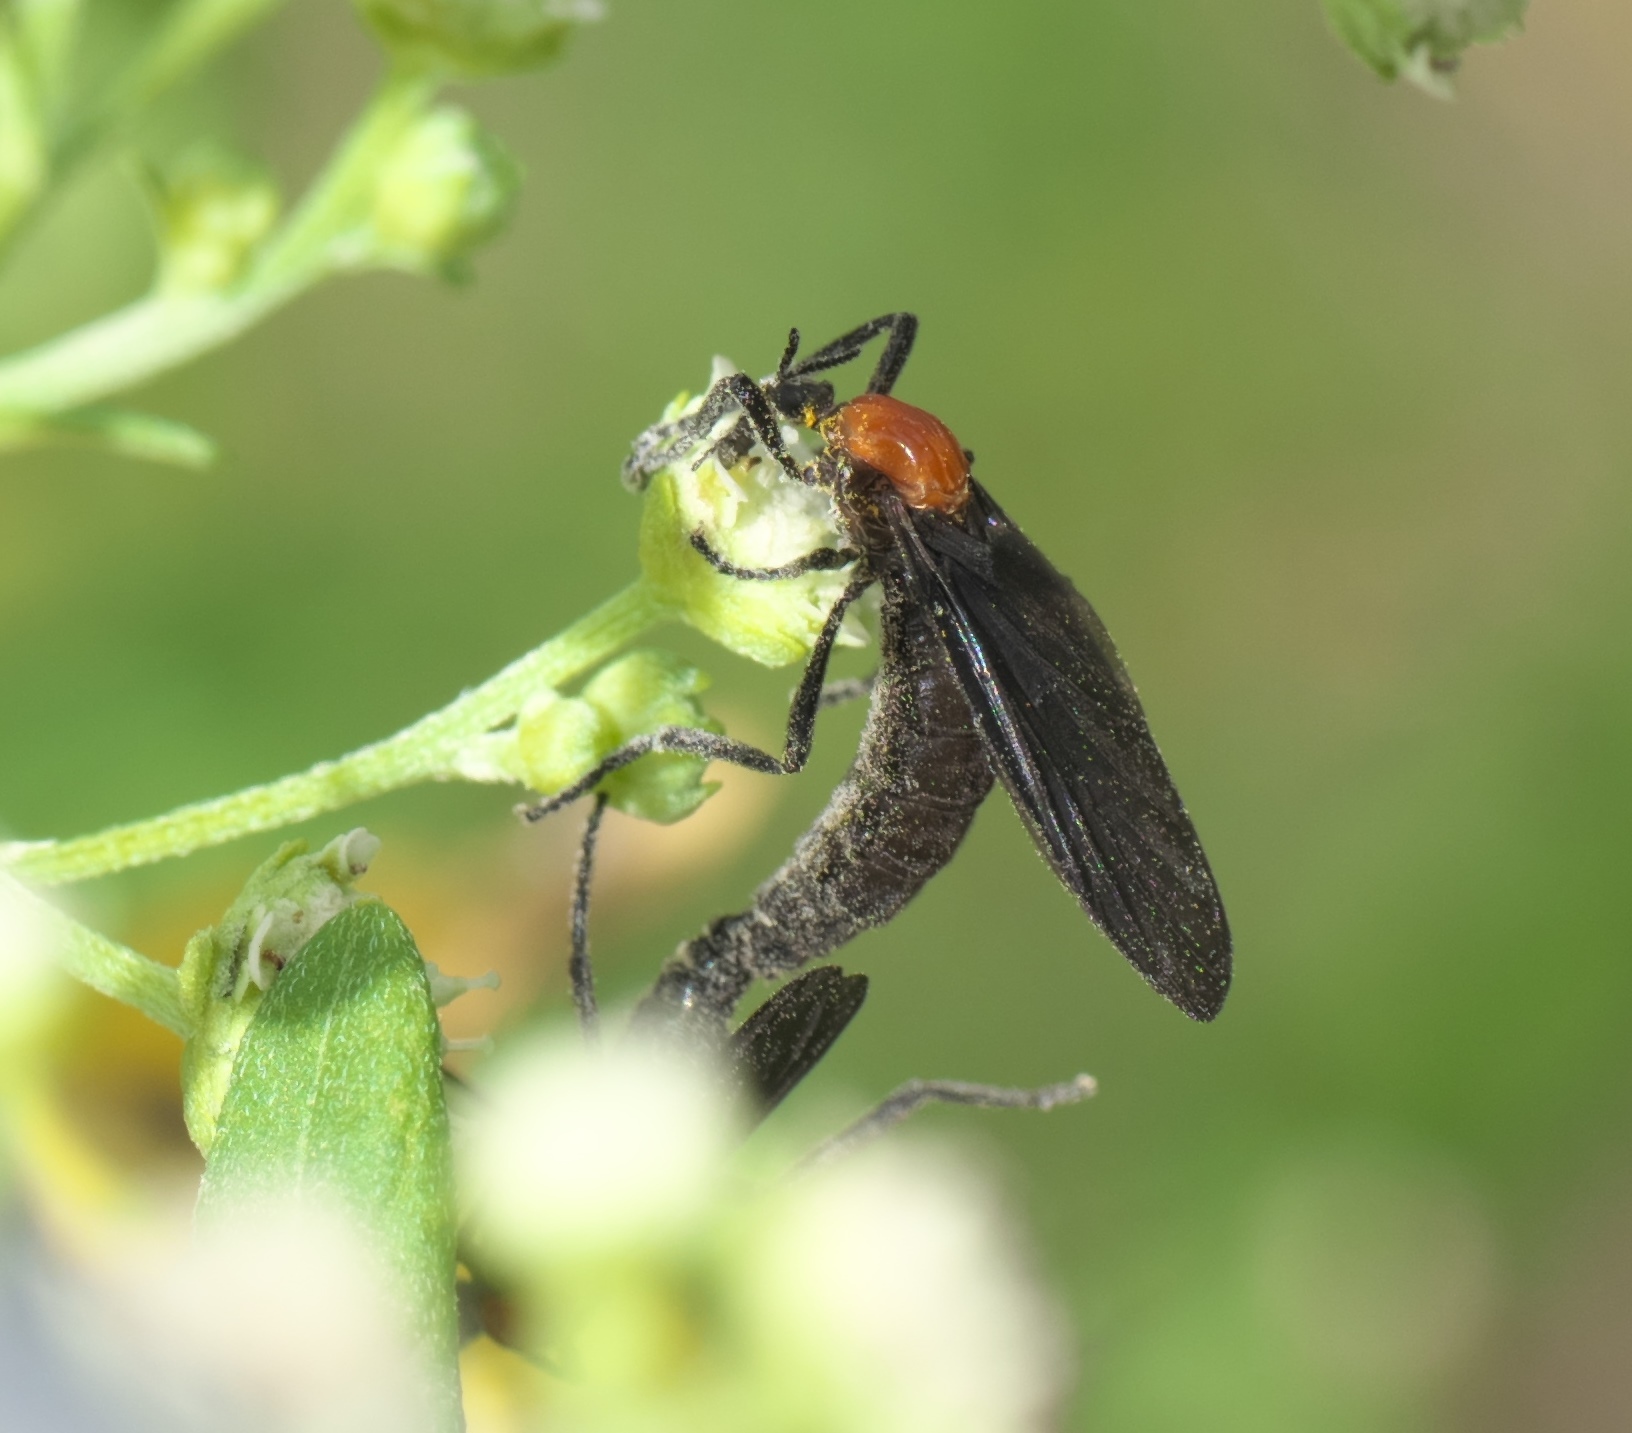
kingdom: Animalia
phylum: Arthropoda
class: Insecta
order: Diptera
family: Bibionidae
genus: Plecia
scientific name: Plecia nearctica
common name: March fly
